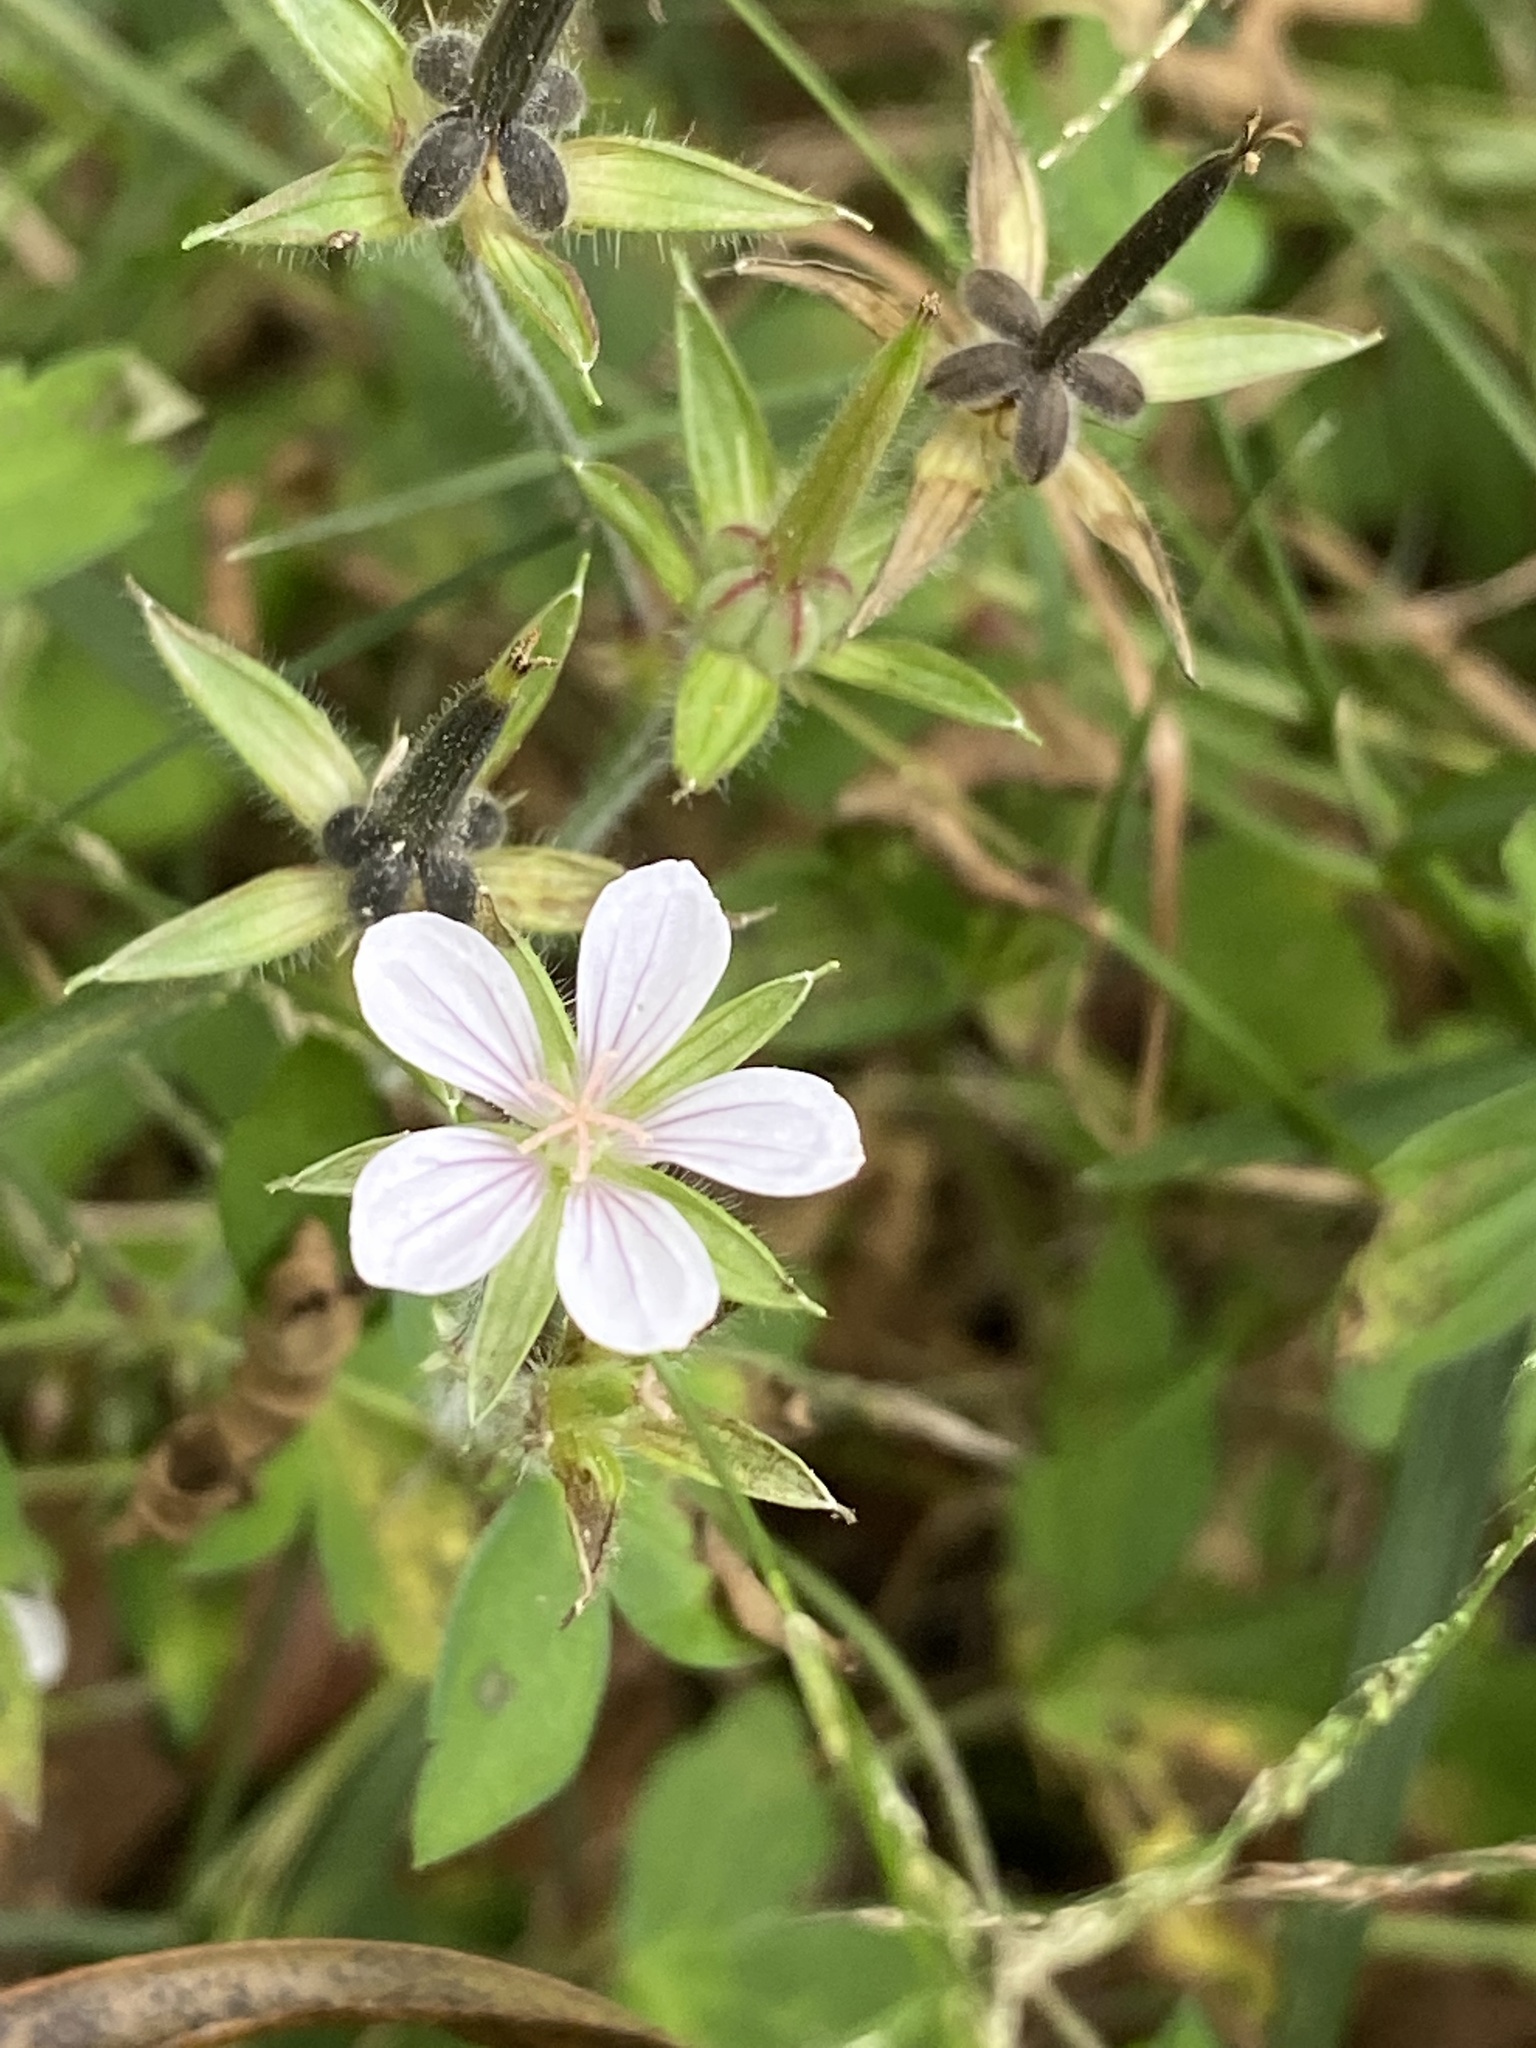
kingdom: Plantae
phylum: Tracheophyta
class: Magnoliopsida
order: Geraniales
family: Geraniaceae
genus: Geranium
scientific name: Geranium thunbergii
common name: Dewdrop crane's-bill
